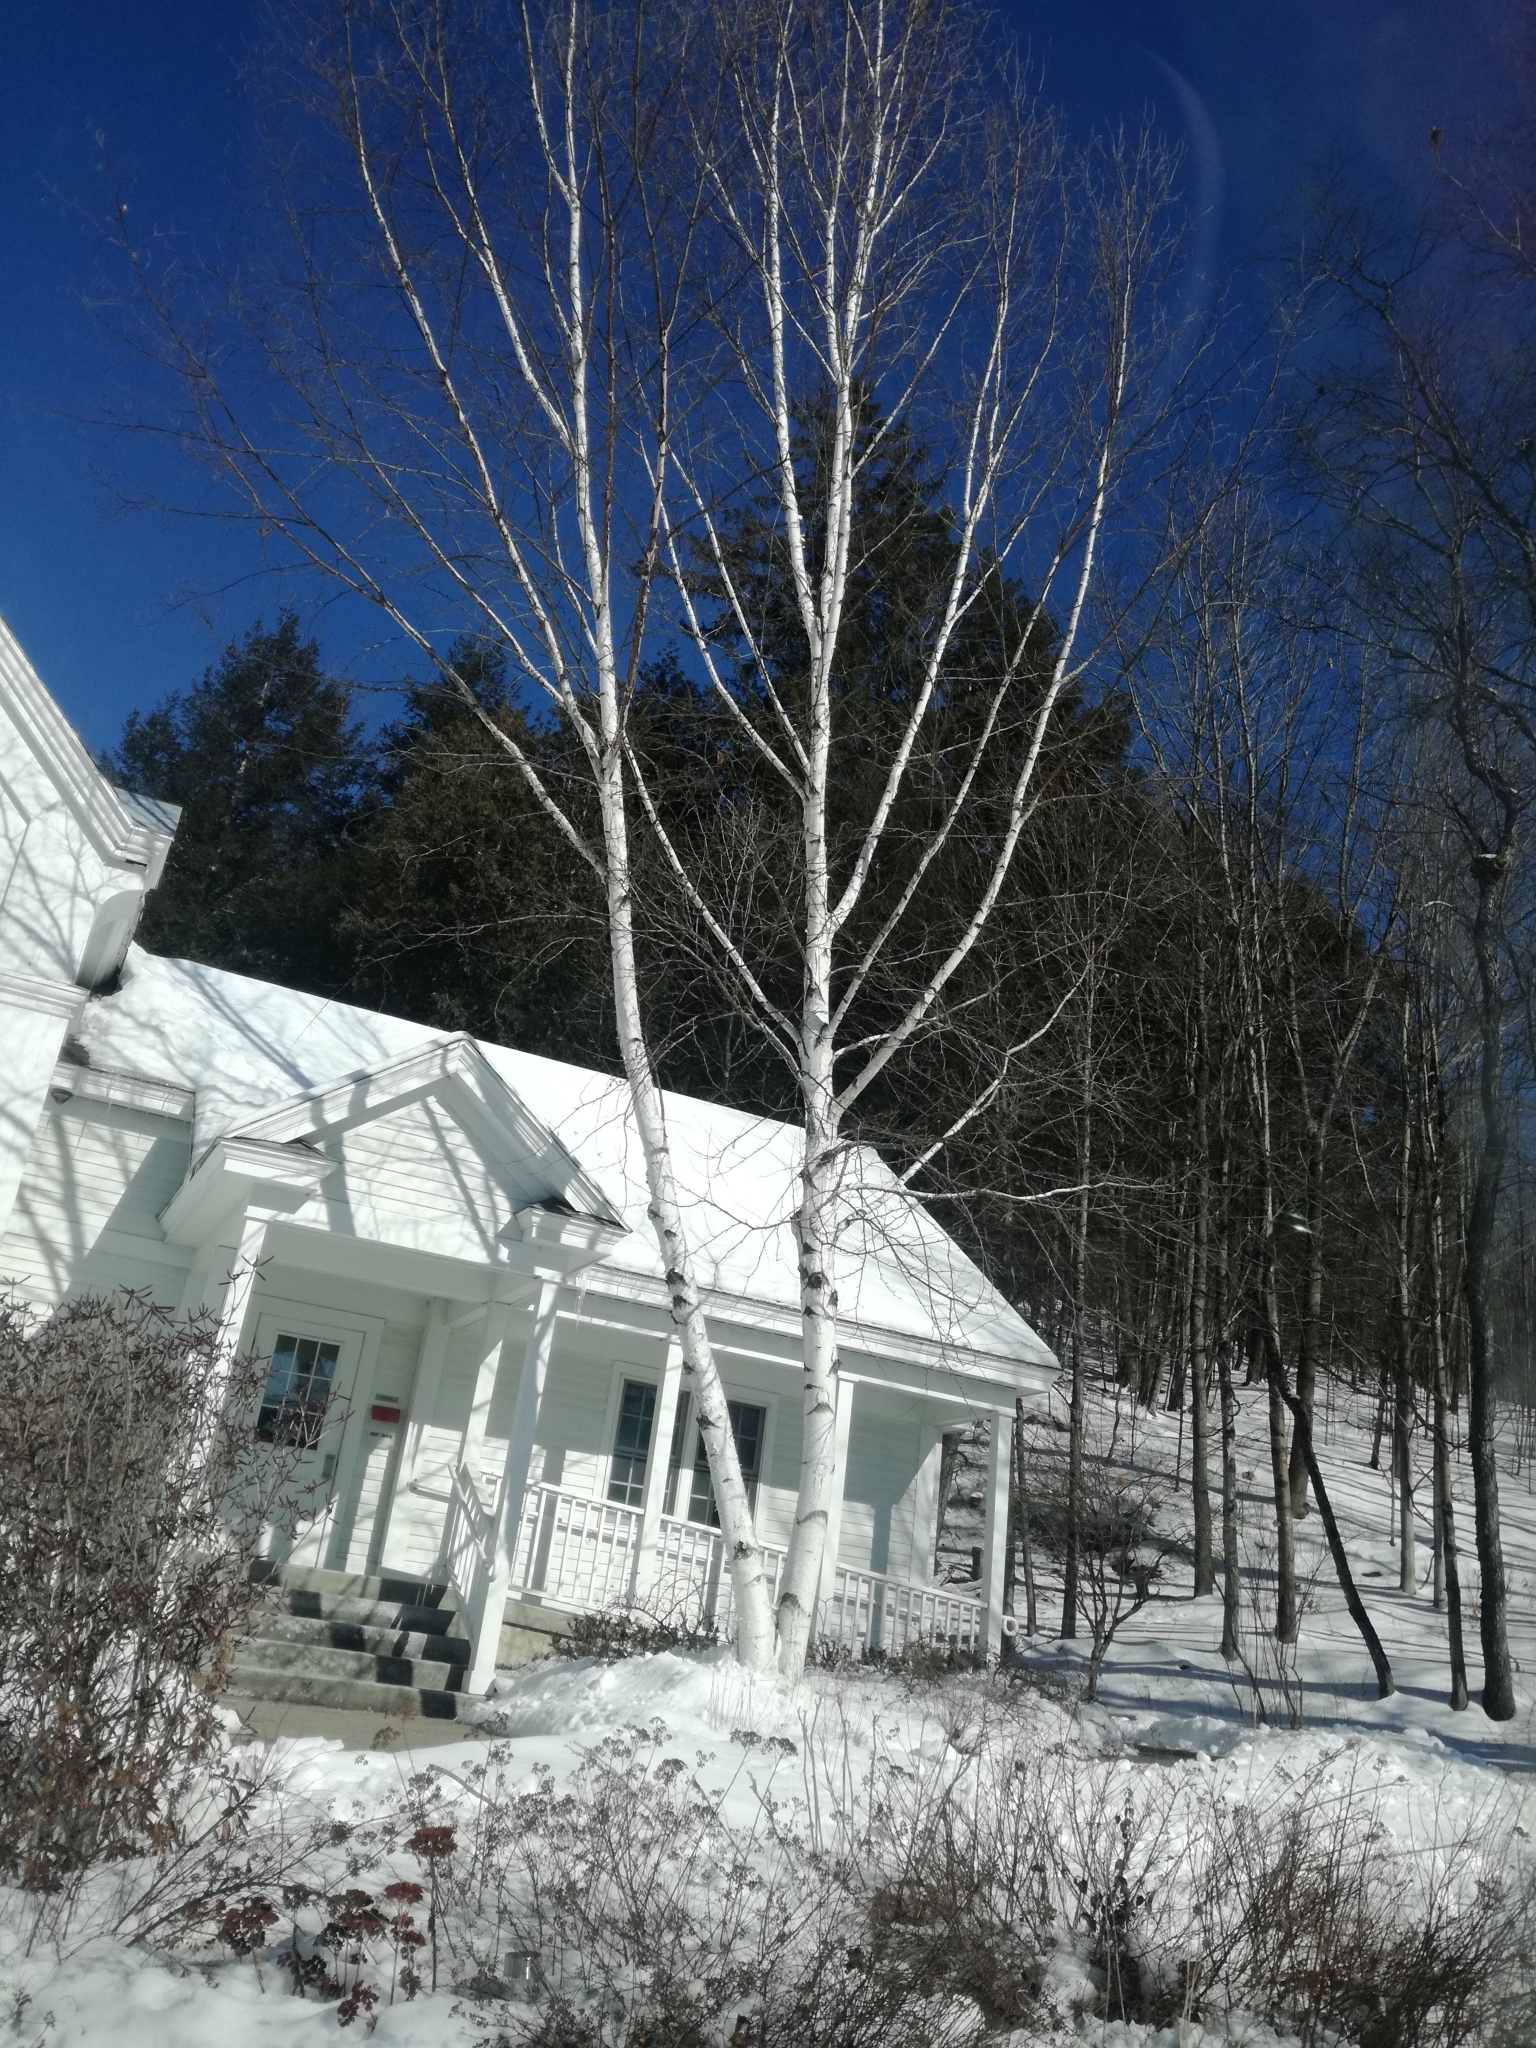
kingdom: Plantae
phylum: Tracheophyta
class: Magnoliopsida
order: Fagales
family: Betulaceae
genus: Betula
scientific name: Betula papyrifera
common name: Paper birch
